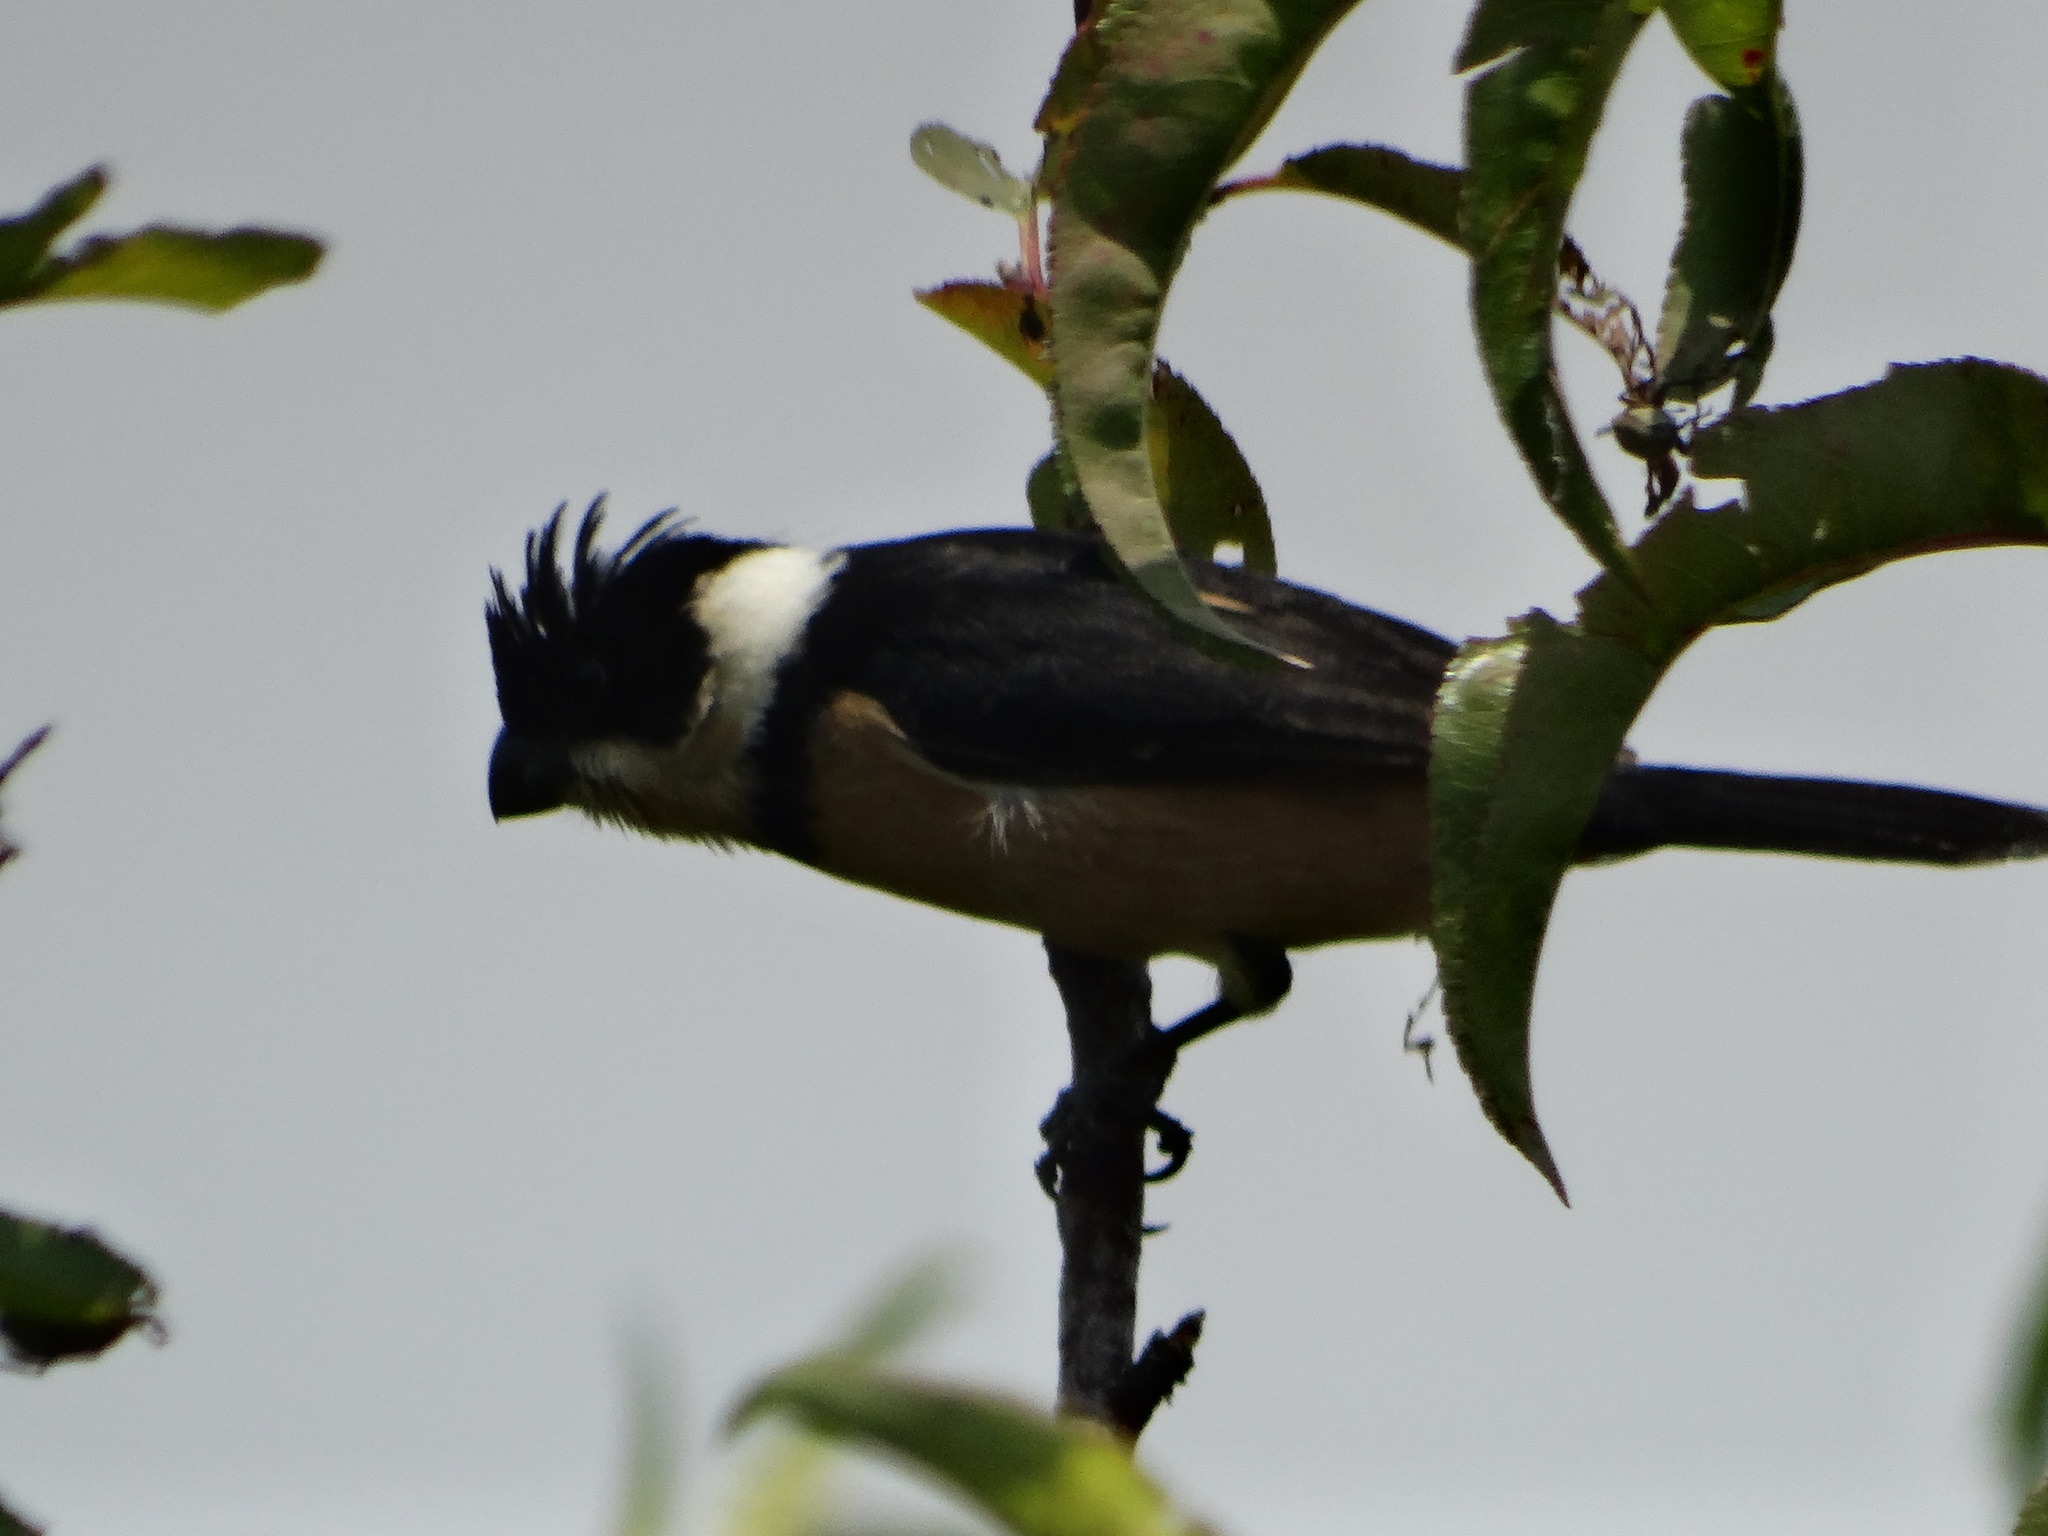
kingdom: Animalia
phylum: Chordata
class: Aves
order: Passeriformes
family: Thraupidae
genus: Sporophila
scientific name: Sporophila torqueola
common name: White-collared seedeater
